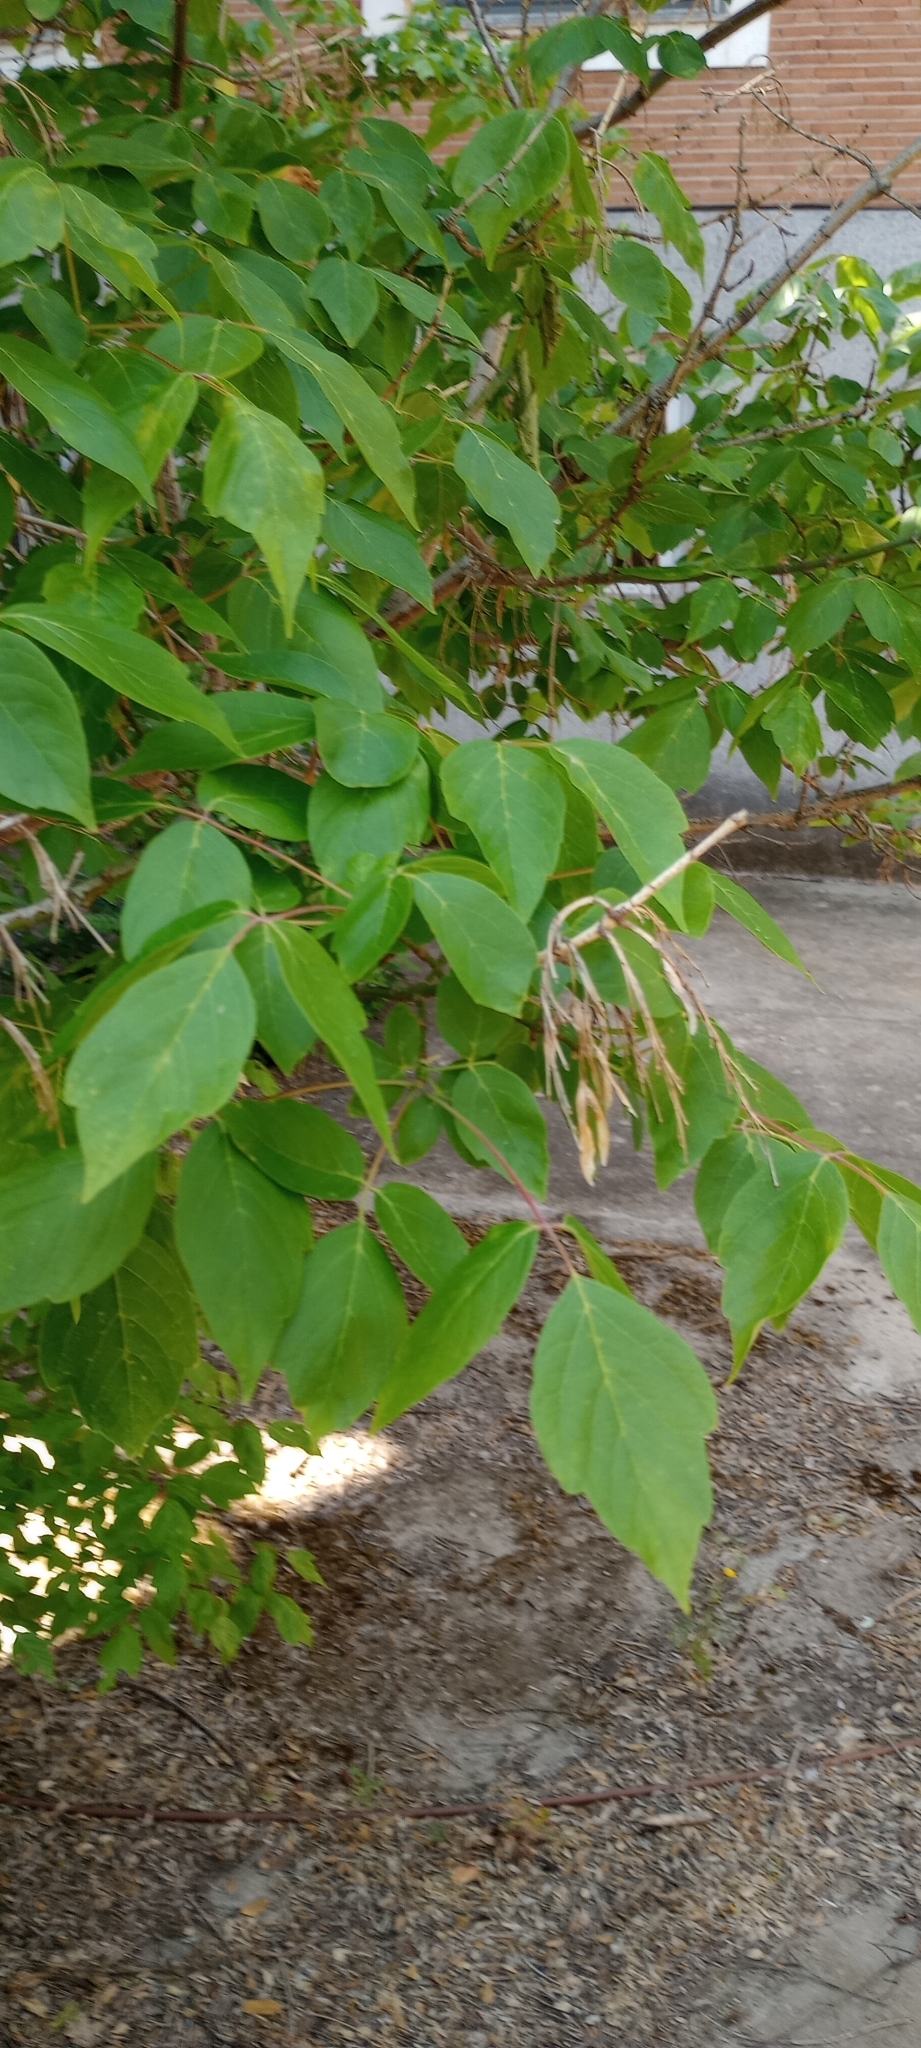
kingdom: Plantae
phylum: Tracheophyta
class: Magnoliopsida
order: Sapindales
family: Sapindaceae
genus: Acer
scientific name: Acer negundo
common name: Ashleaf maple
